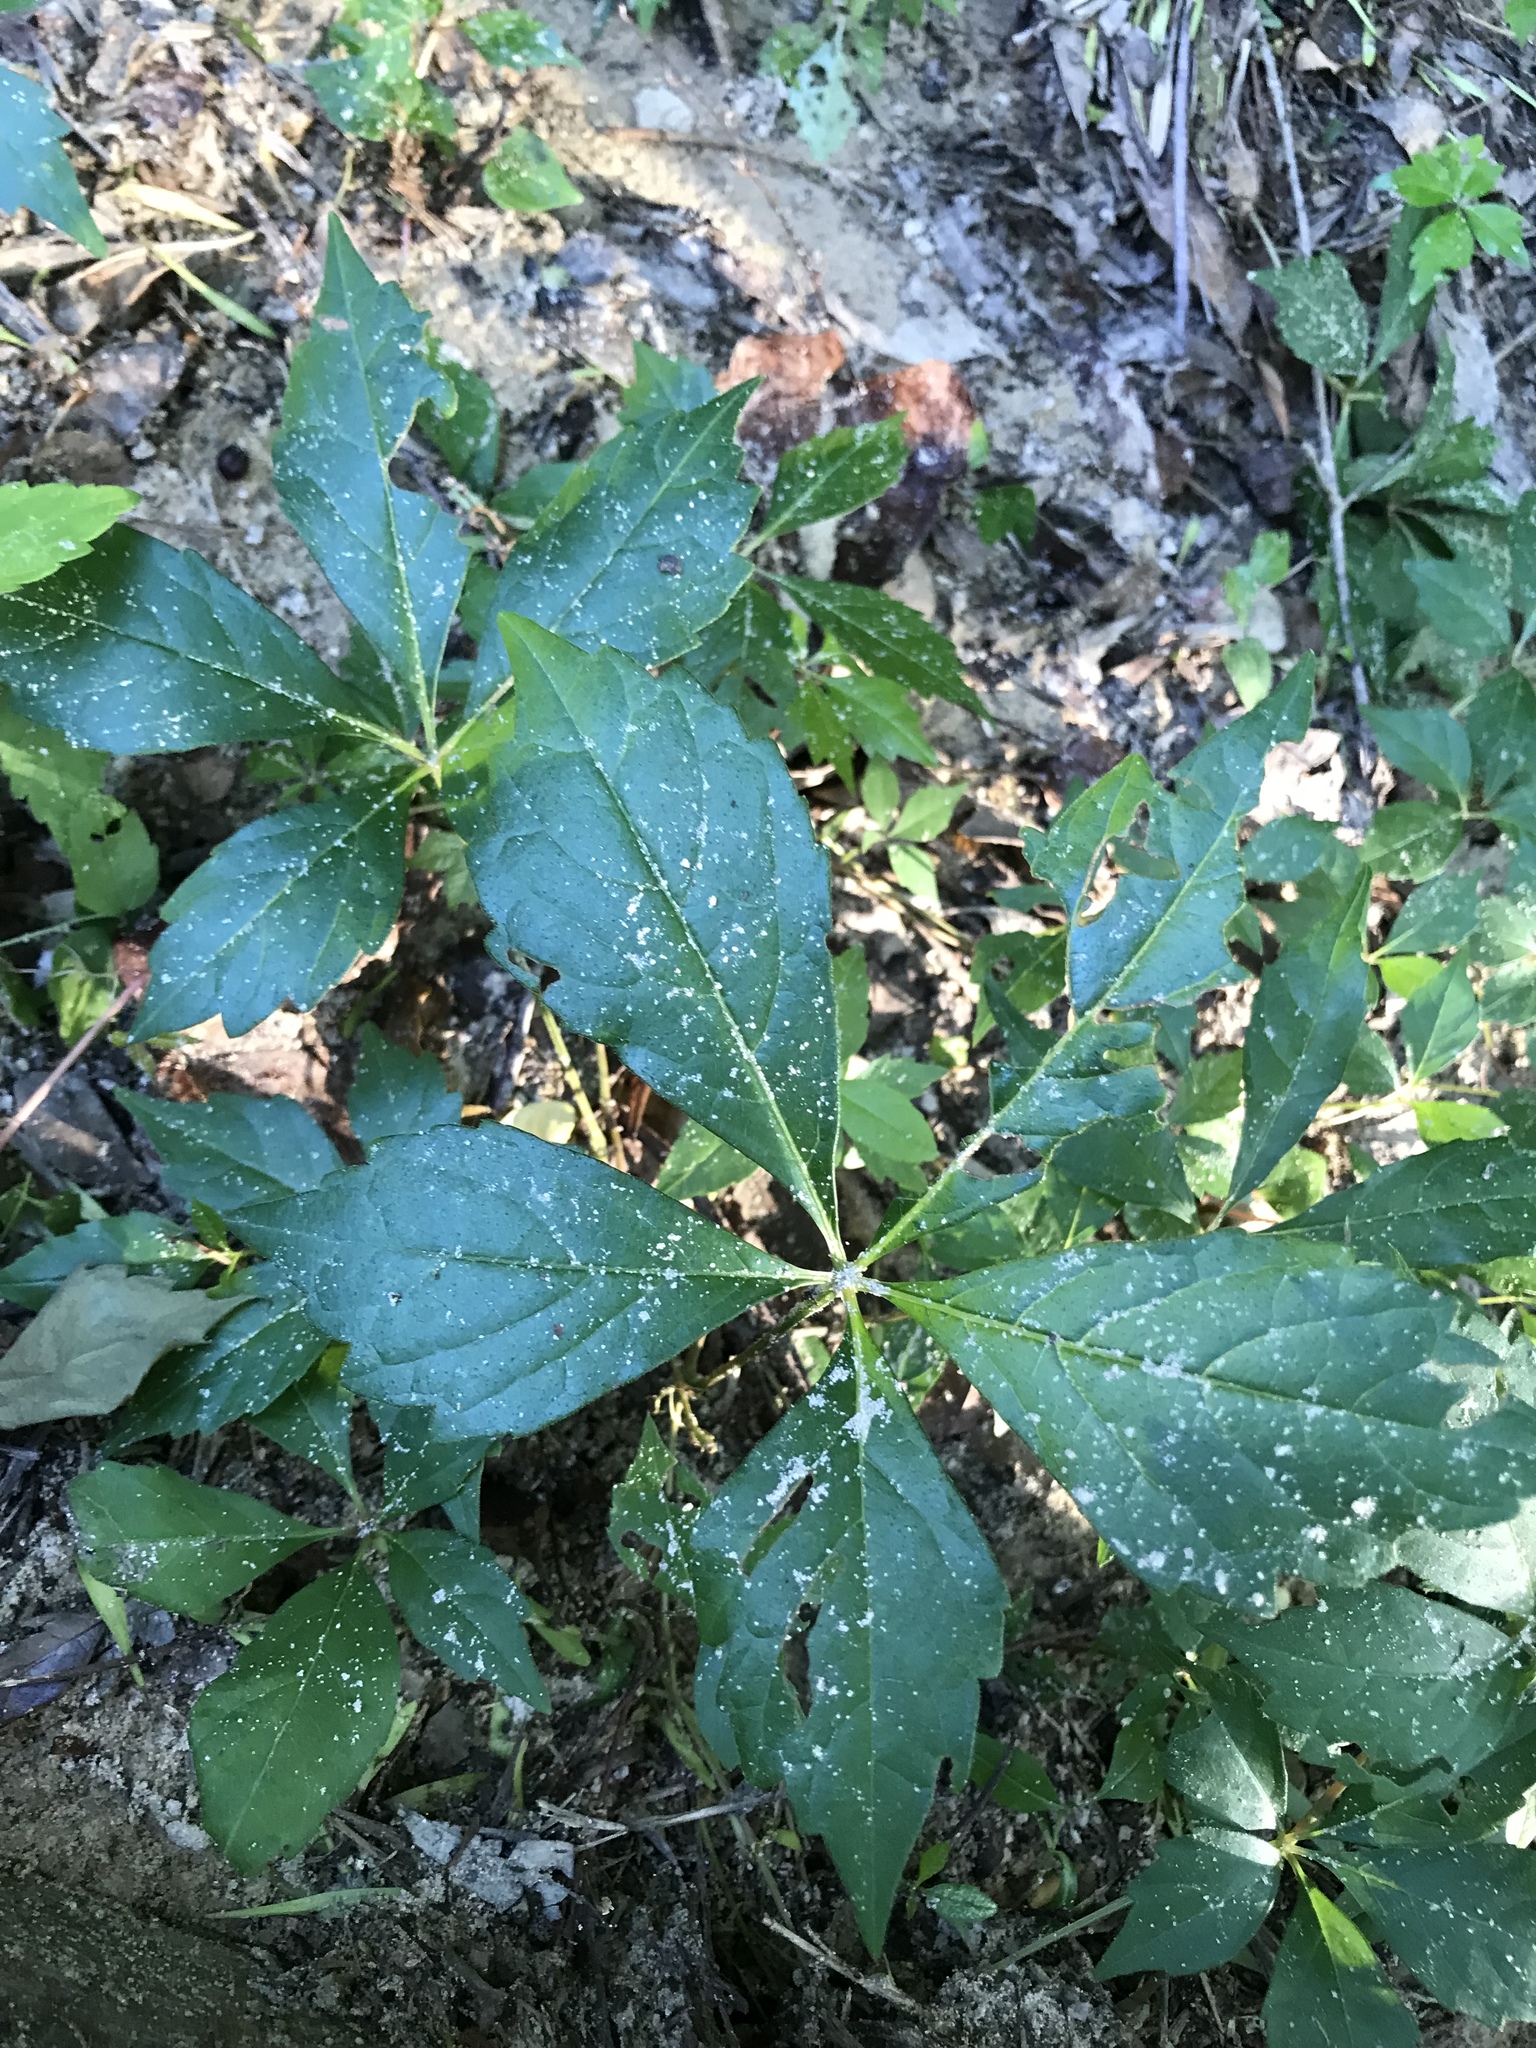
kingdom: Plantae
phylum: Tracheophyta
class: Magnoliopsida
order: Vitales
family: Vitaceae
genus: Parthenocissus
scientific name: Parthenocissus quinquefolia
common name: Virginia-creeper
